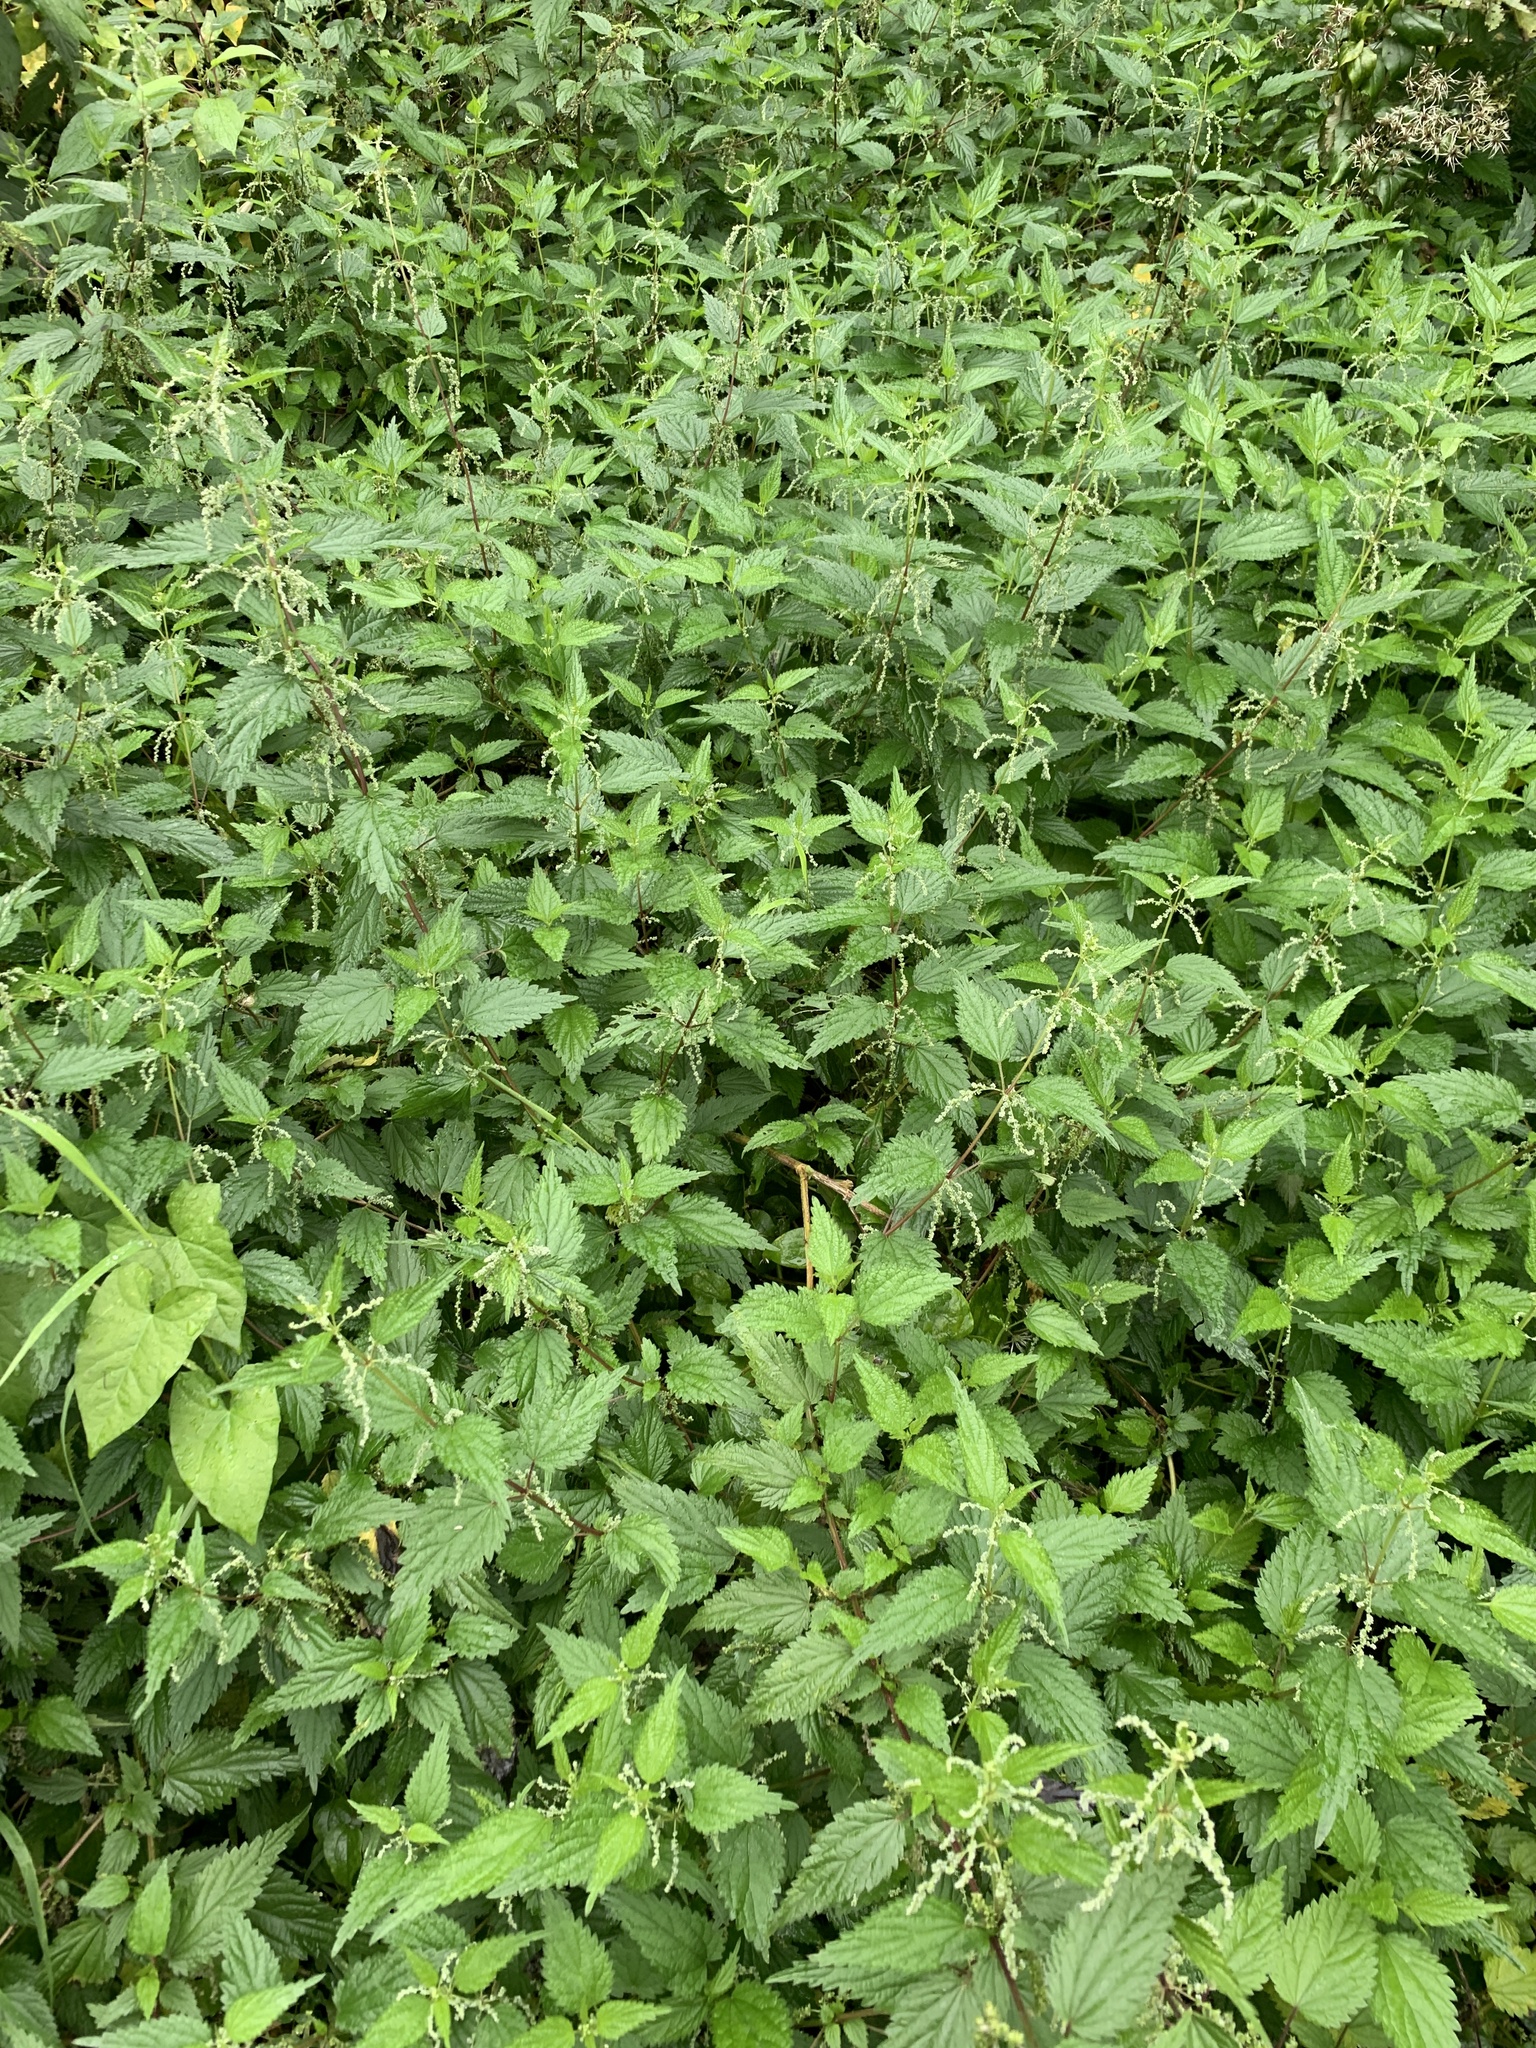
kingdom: Plantae
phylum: Tracheophyta
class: Magnoliopsida
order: Rosales
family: Urticaceae
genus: Urtica
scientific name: Urtica dioica
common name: Common nettle
